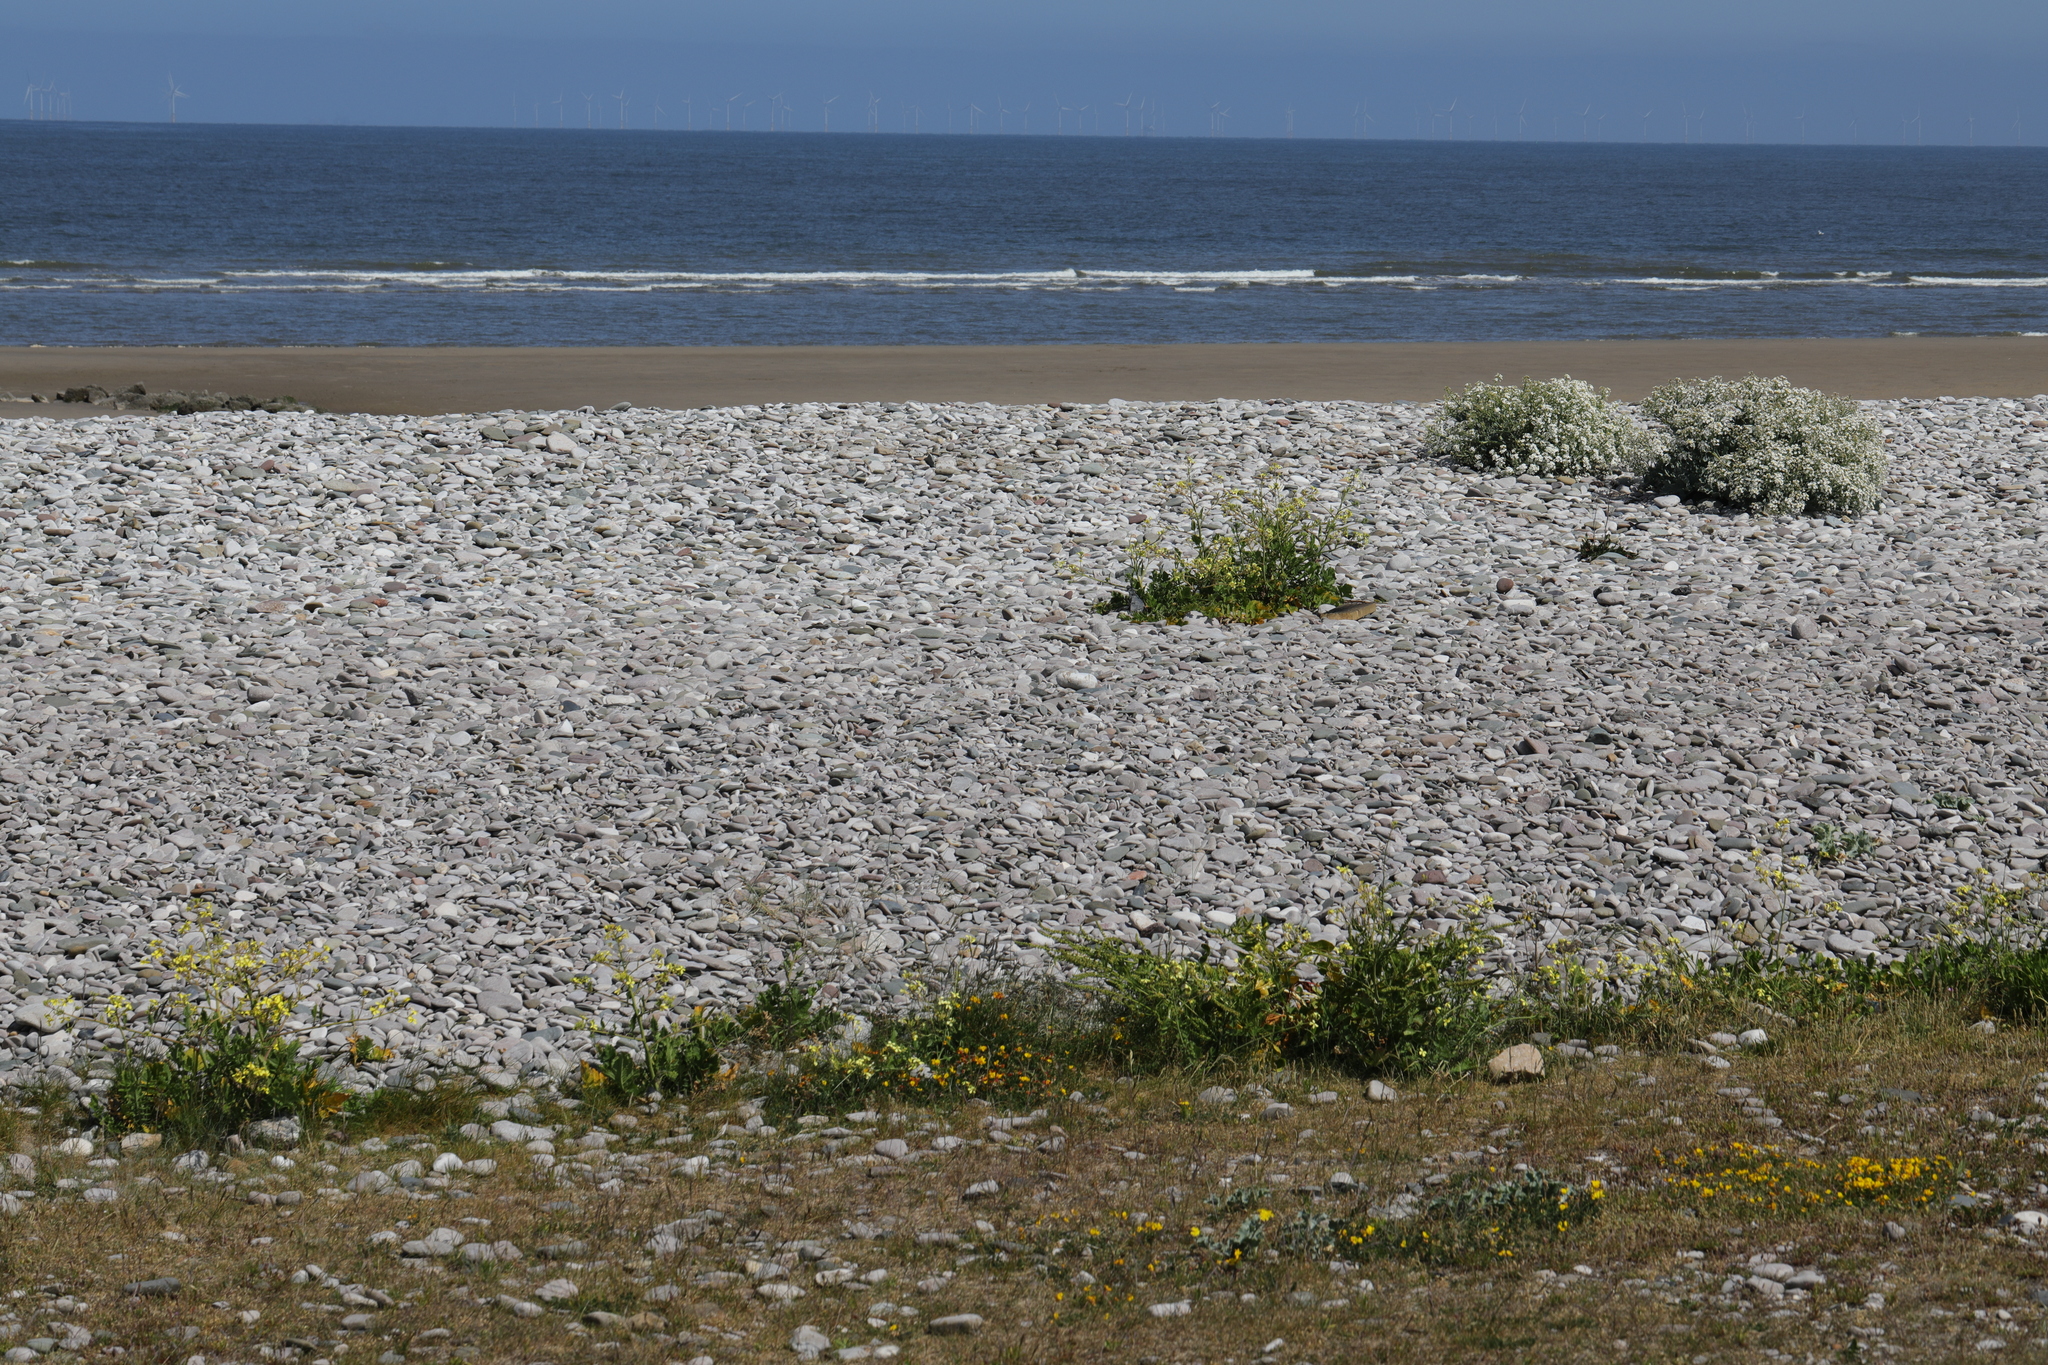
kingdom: Plantae
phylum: Tracheophyta
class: Magnoliopsida
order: Brassicales
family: Brassicaceae
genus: Crambe
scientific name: Crambe maritima
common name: Sea-kale
